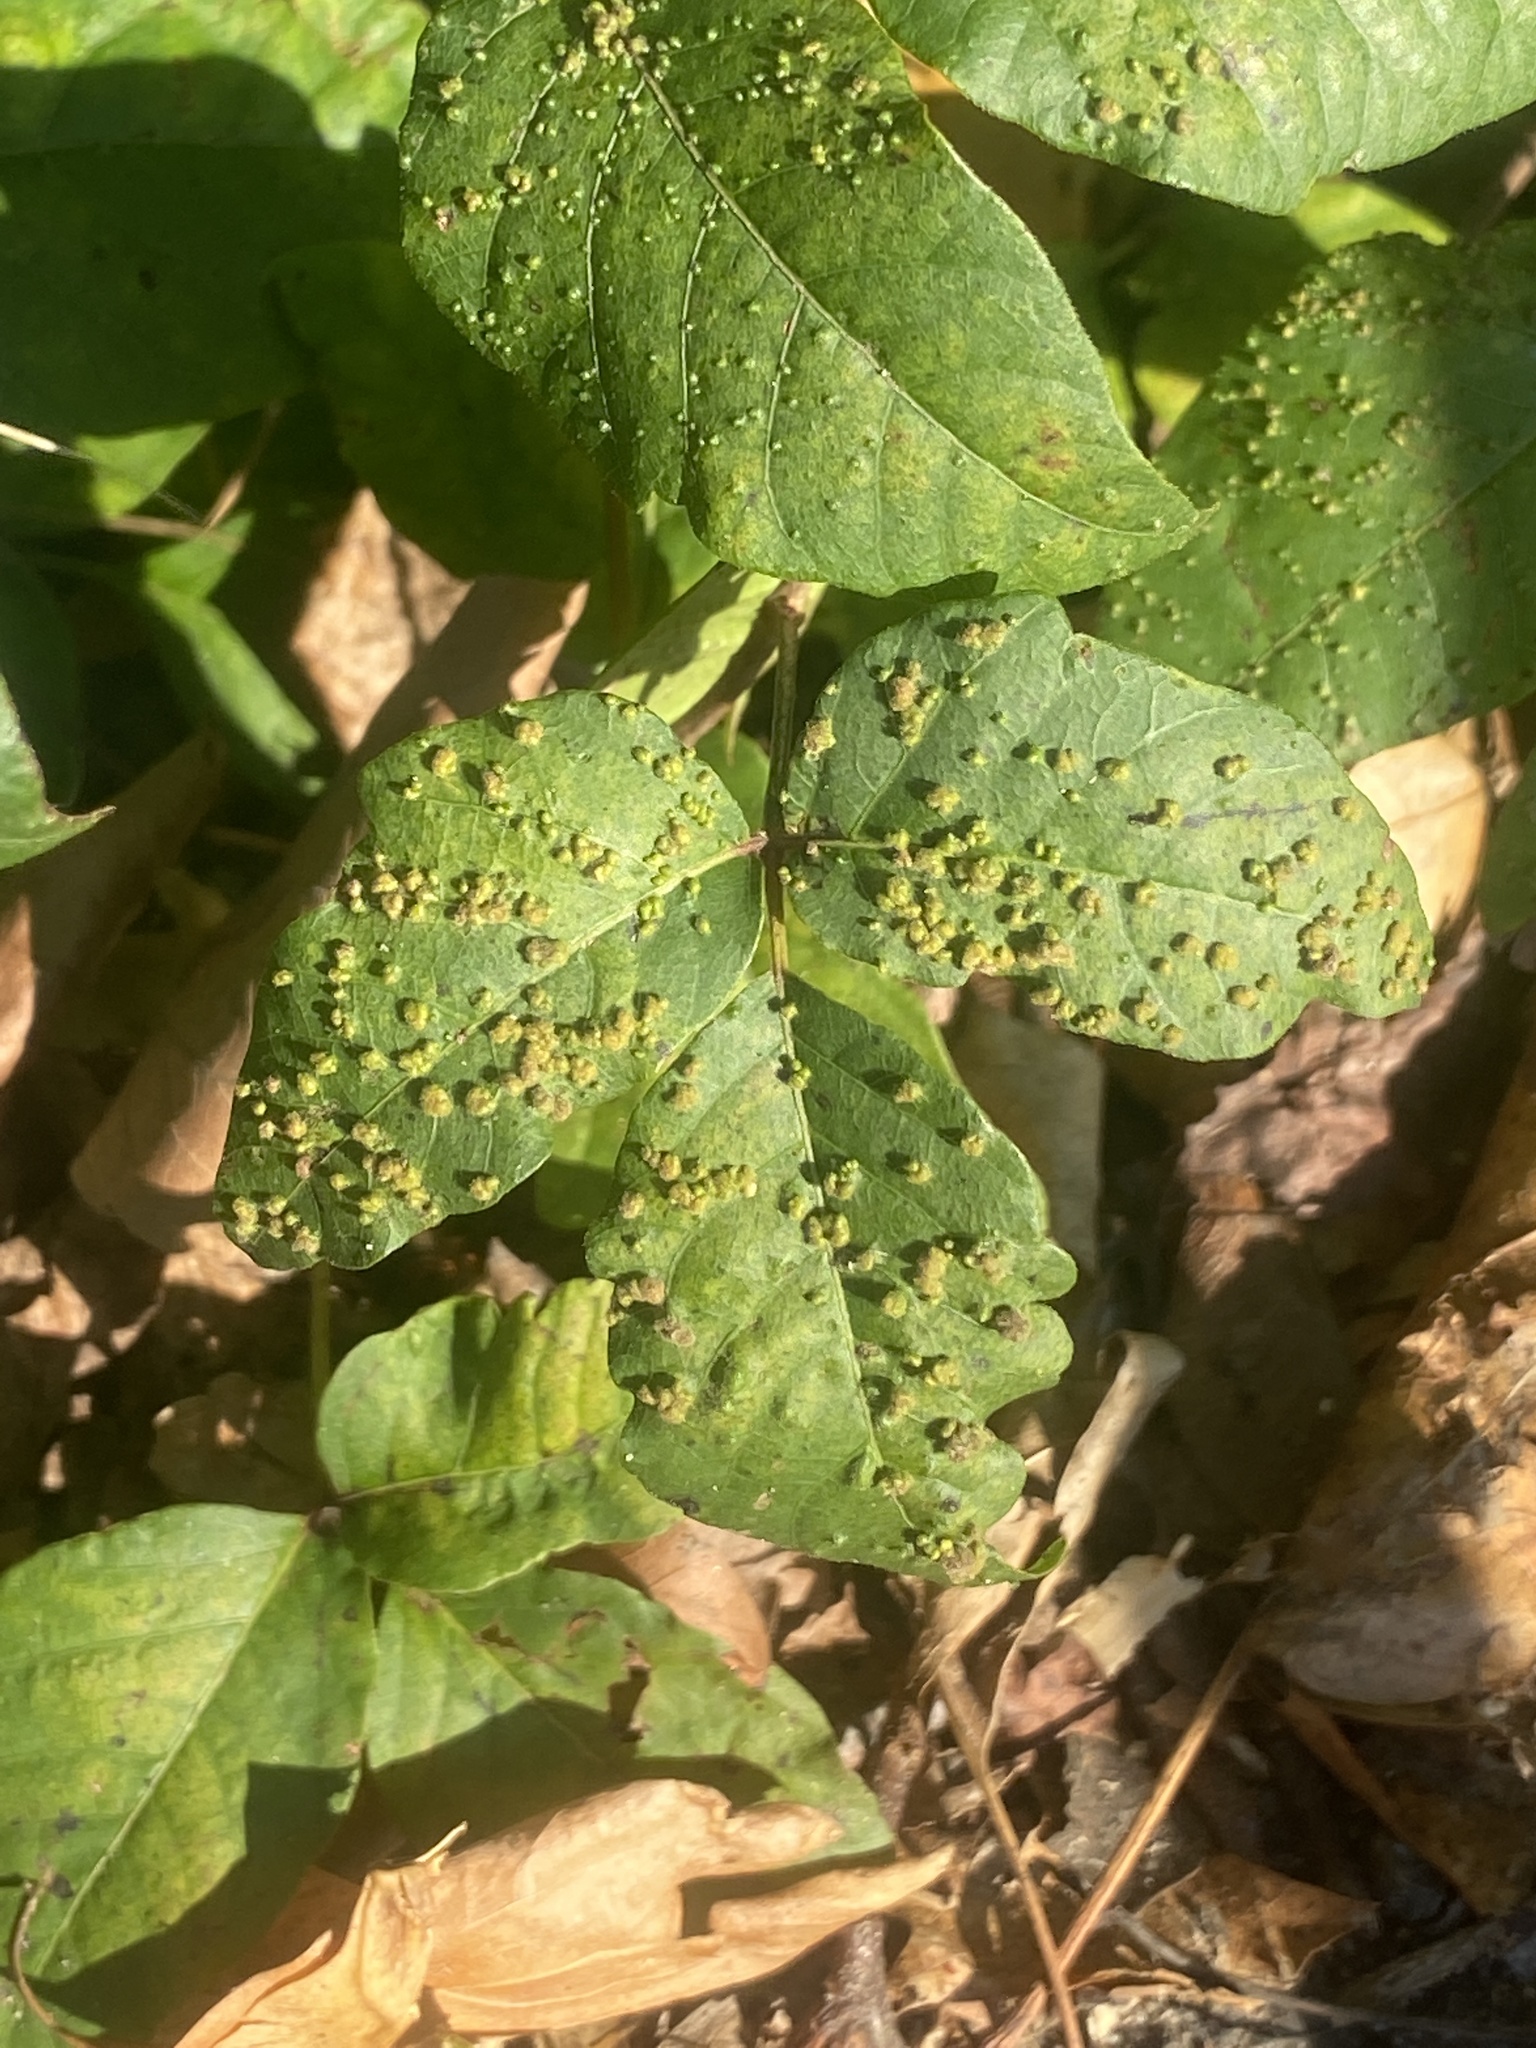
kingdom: Animalia
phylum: Arthropoda
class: Arachnida
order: Trombidiformes
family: Eriophyidae
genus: Aculops
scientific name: Aculops
